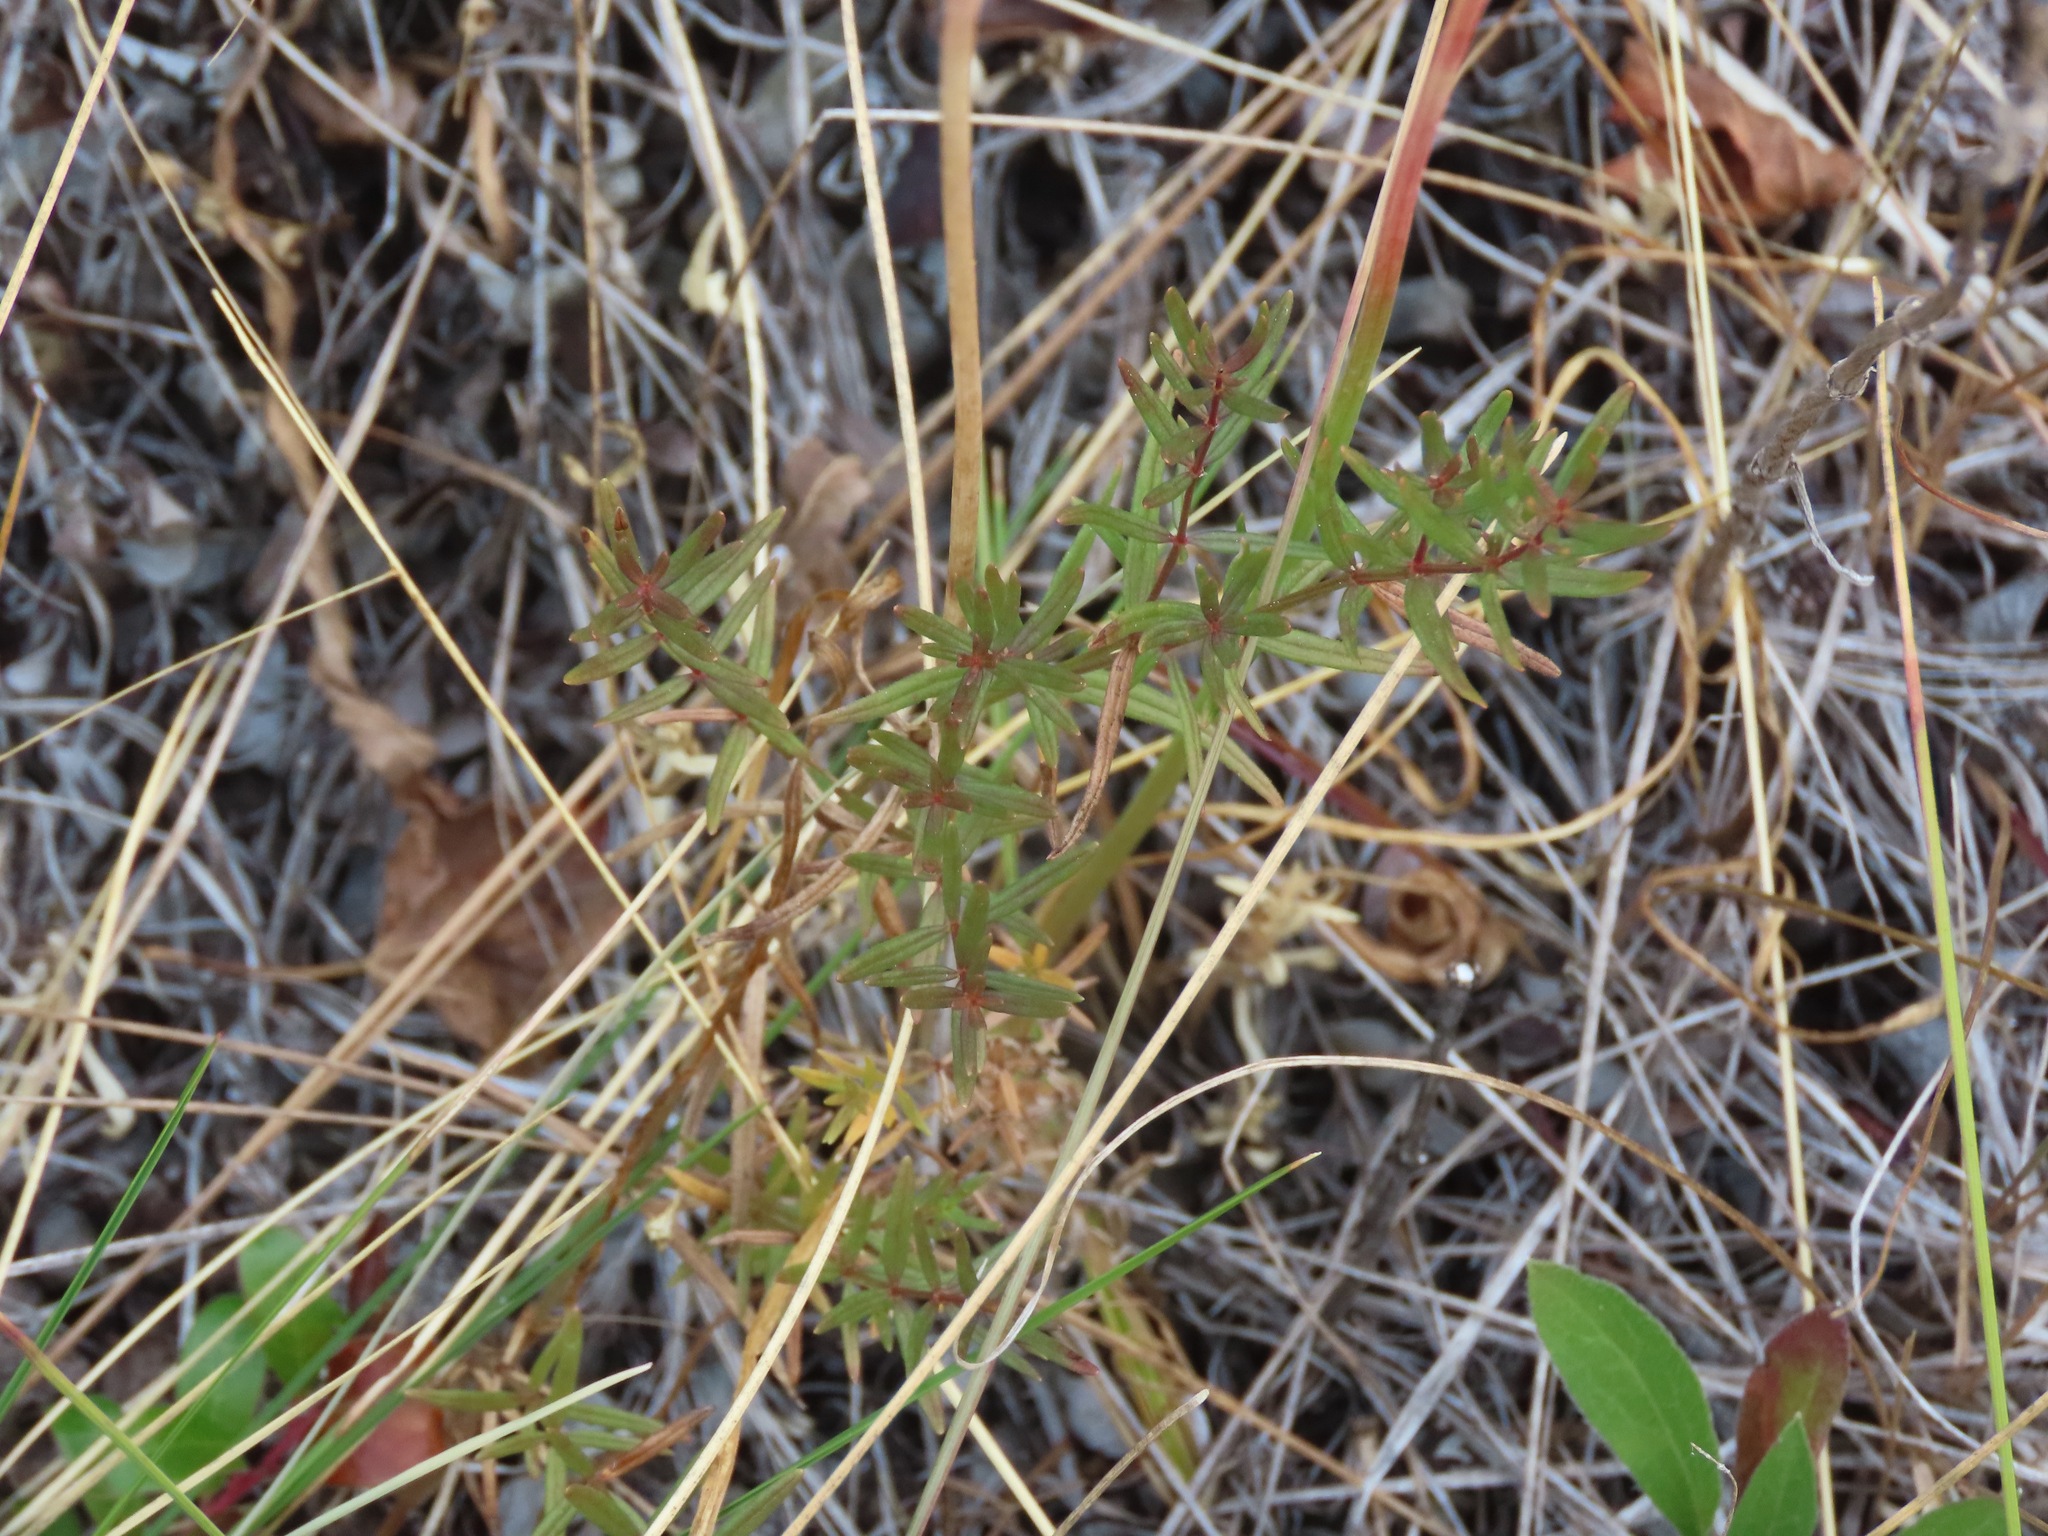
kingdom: Plantae
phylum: Tracheophyta
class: Magnoliopsida
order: Gentianales
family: Rubiaceae
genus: Galium
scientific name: Galium boreale
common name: Northern bedstraw
